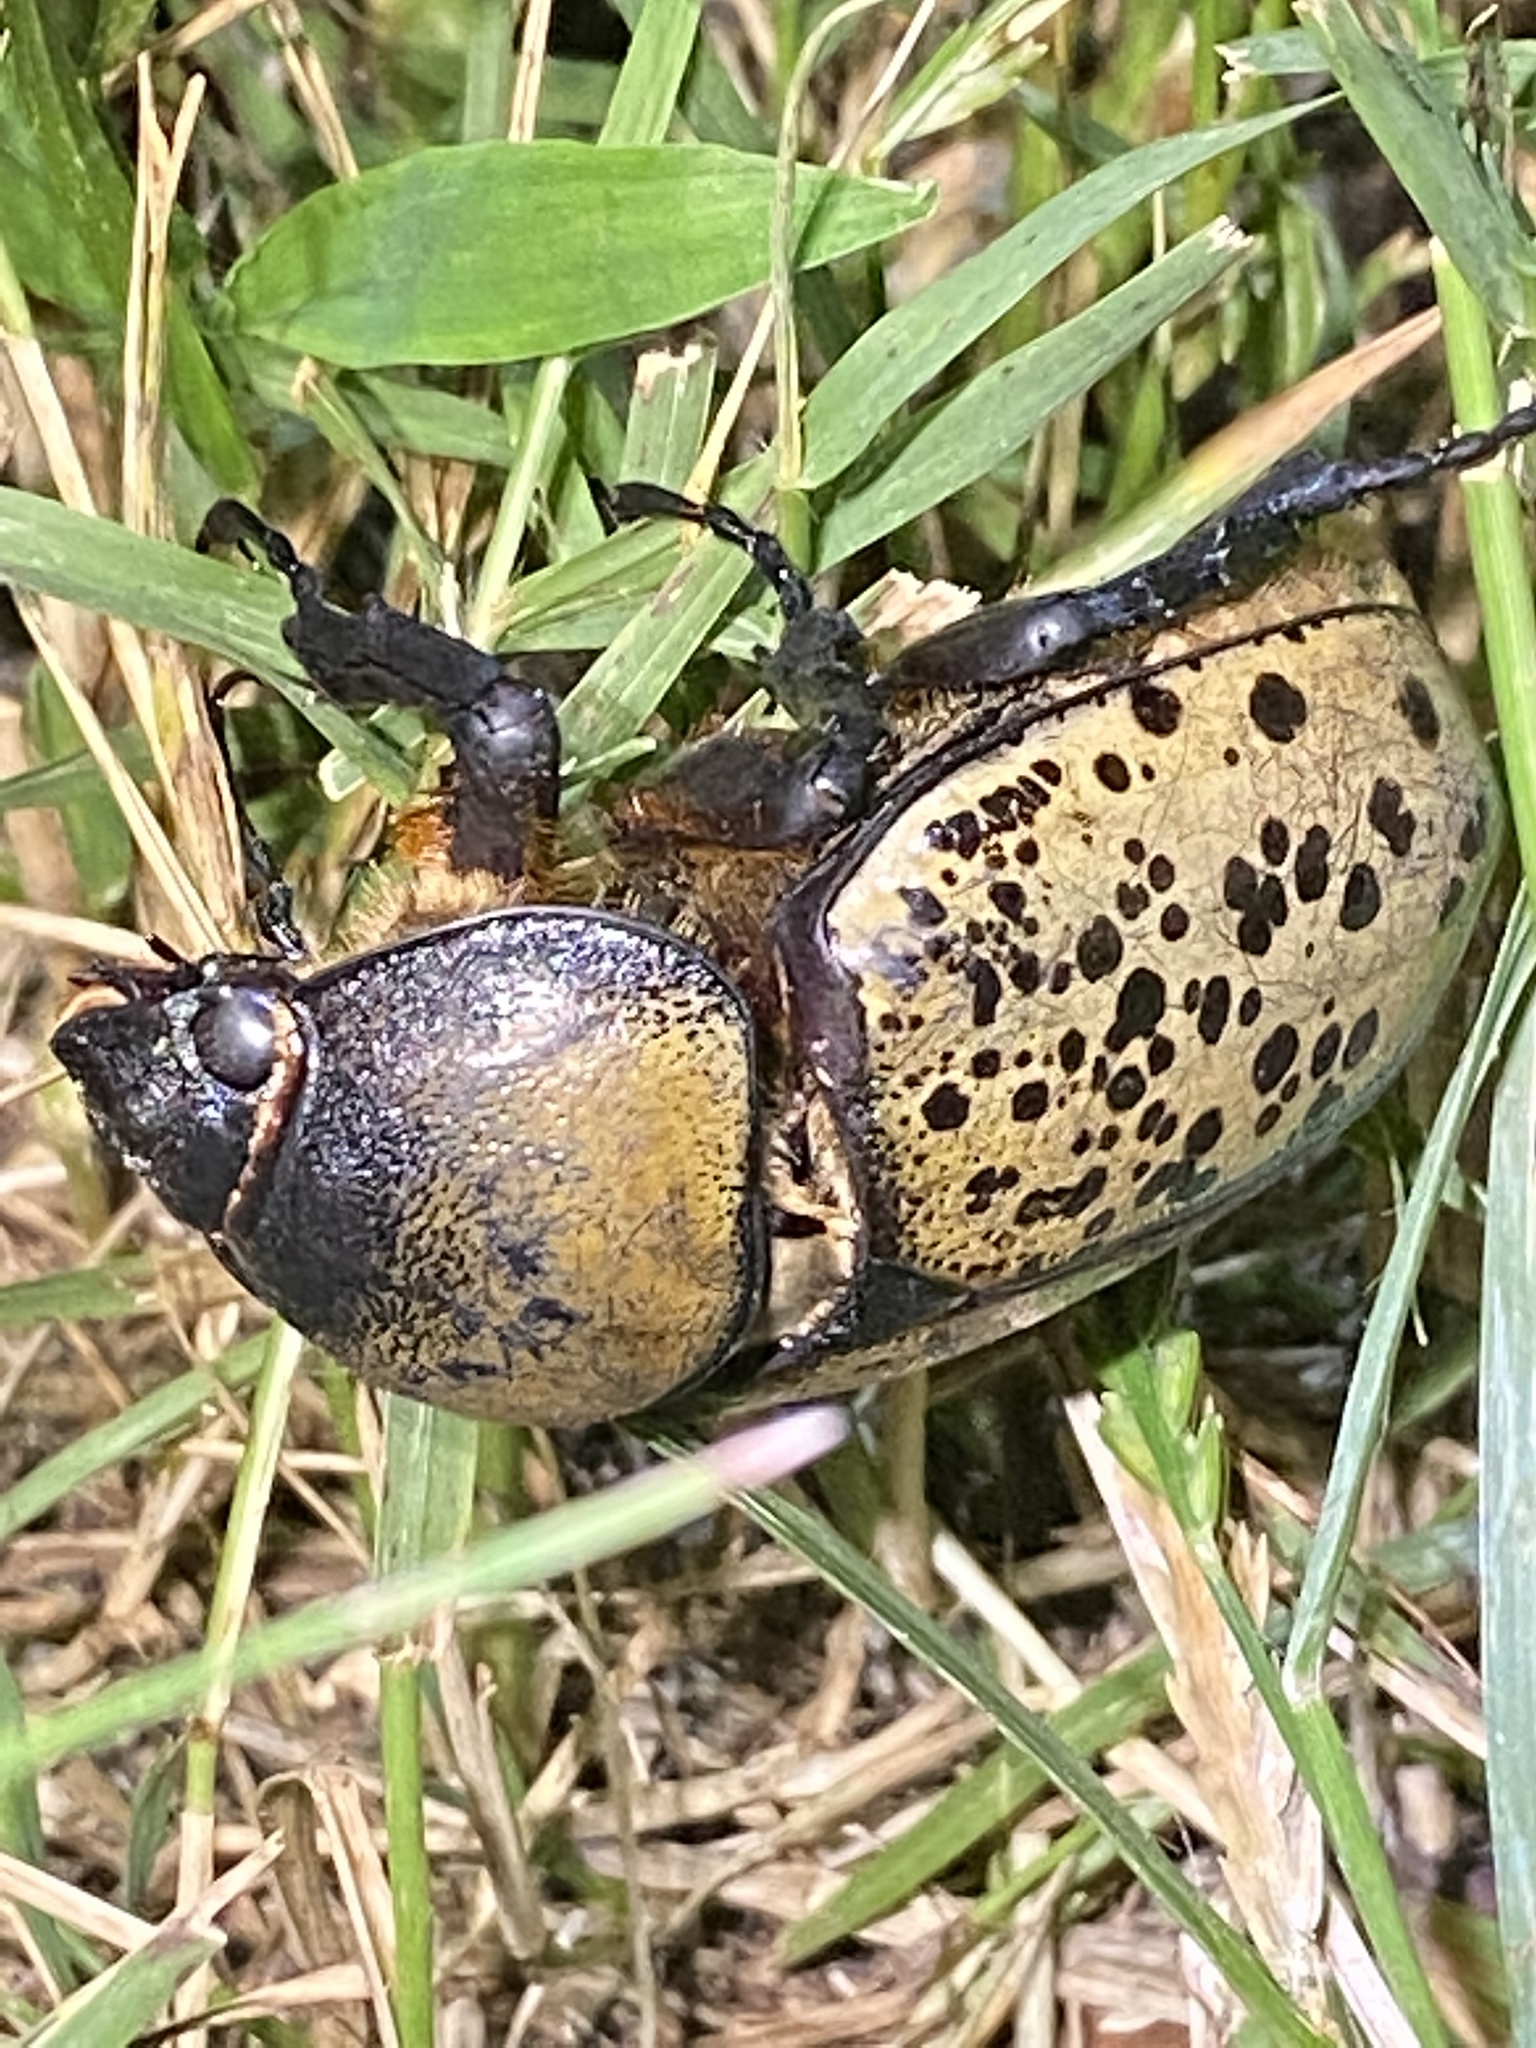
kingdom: Animalia
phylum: Arthropoda
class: Insecta
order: Coleoptera
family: Scarabaeidae
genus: Dynastes
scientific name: Dynastes tityus
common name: Eastern hercules beetle
